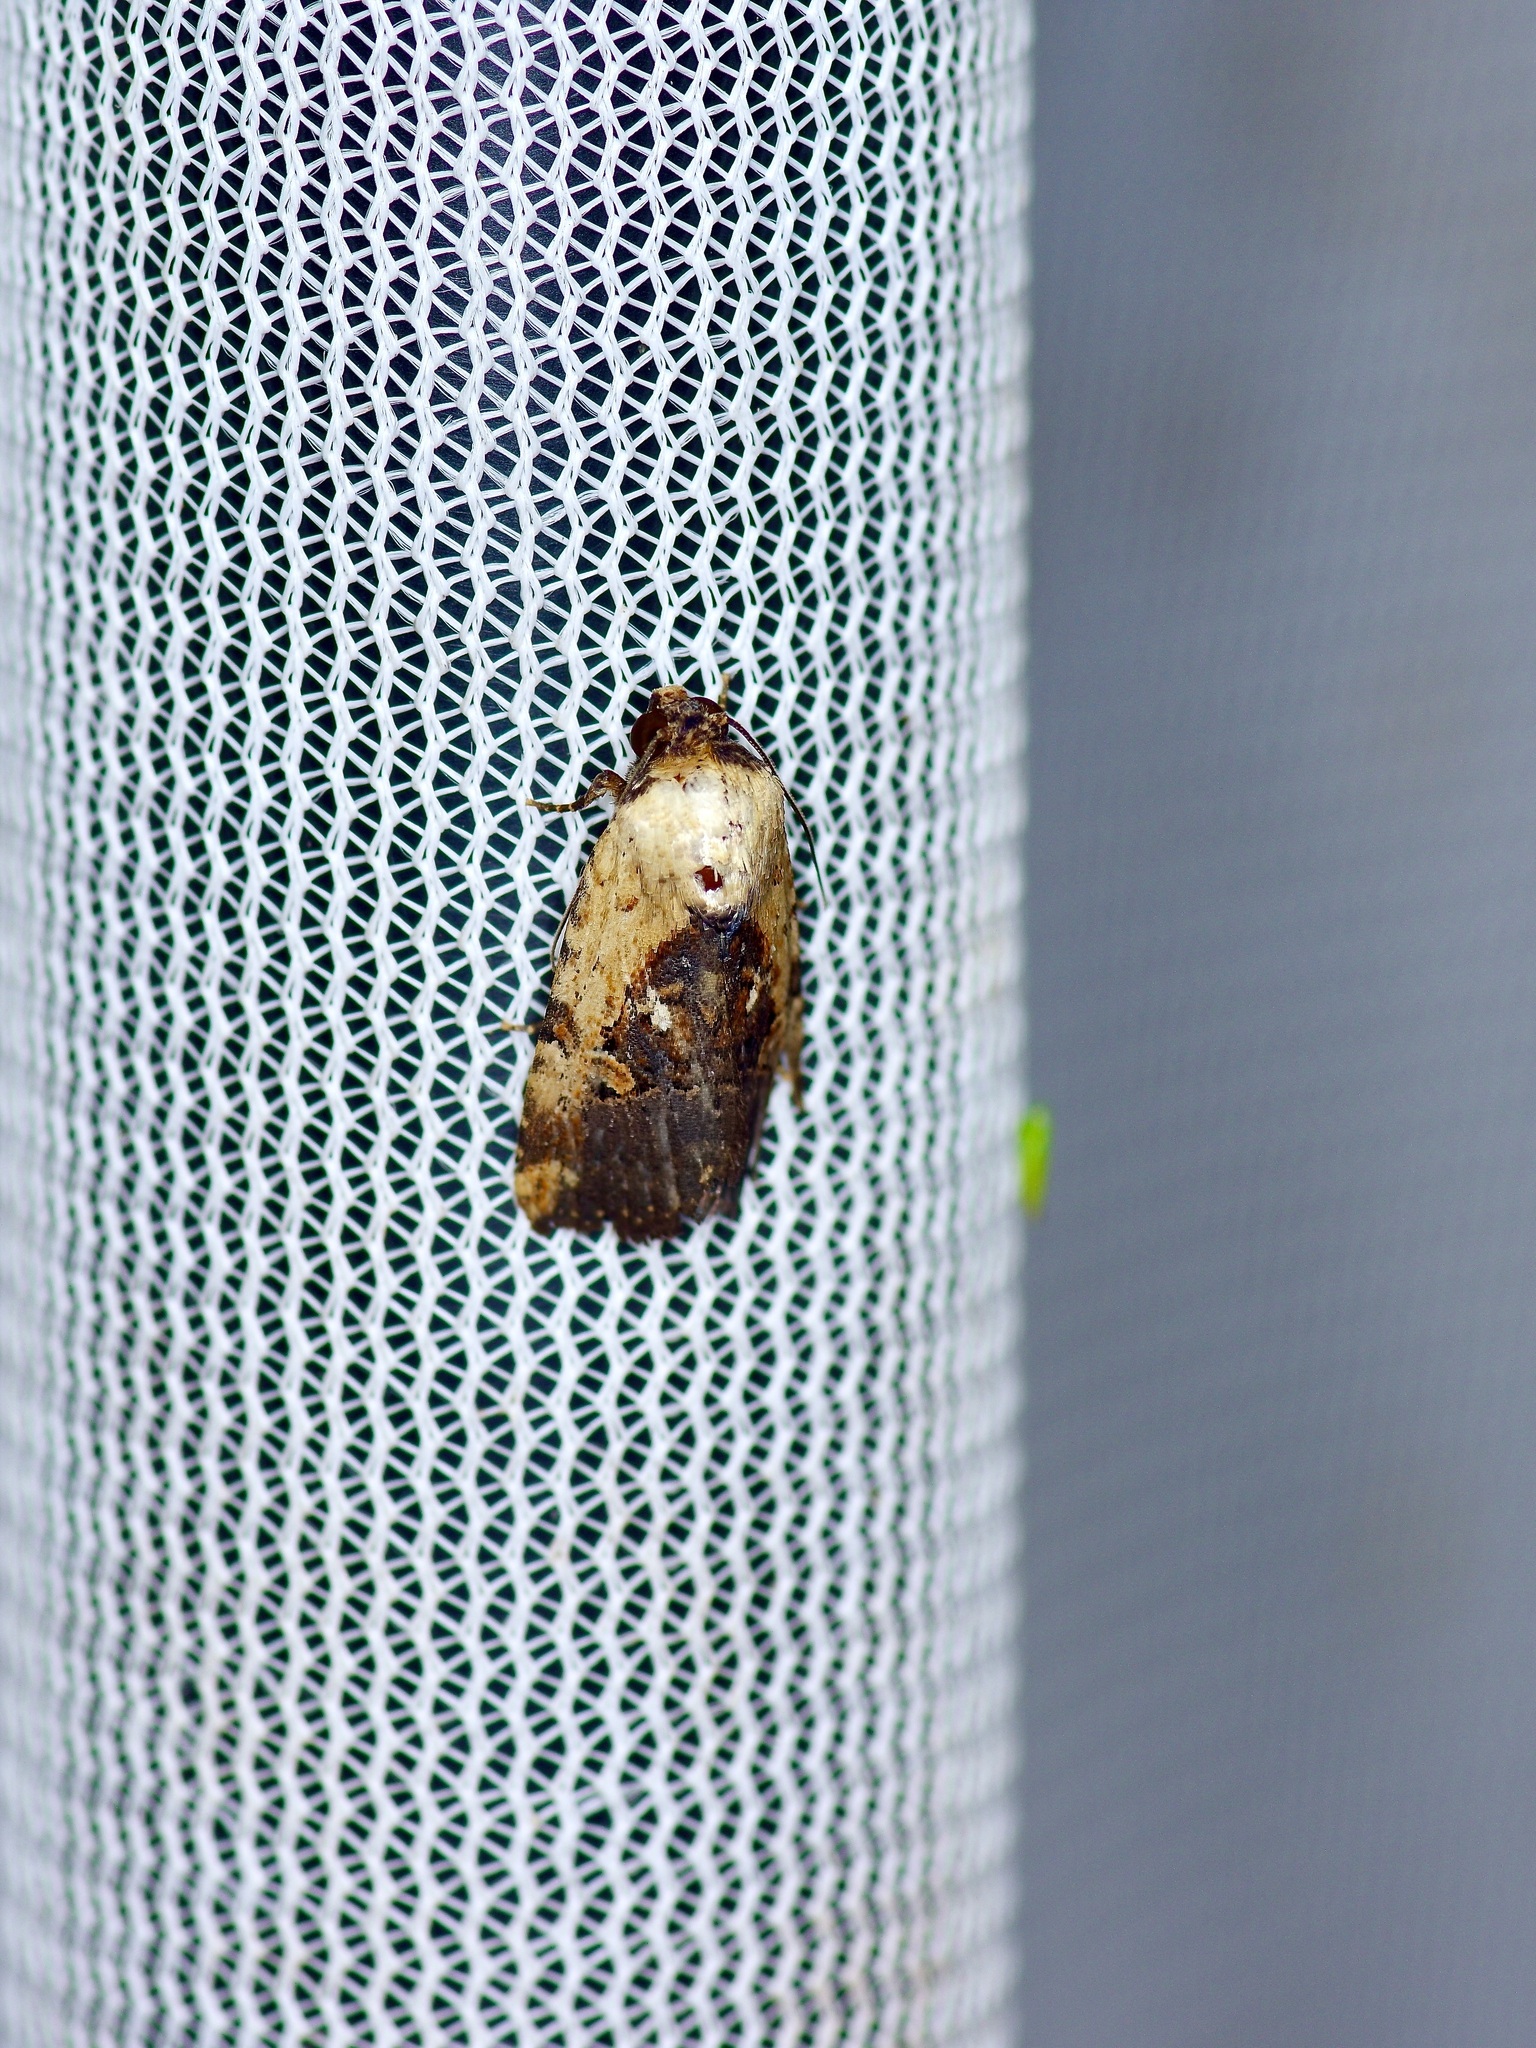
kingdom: Animalia
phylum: Arthropoda
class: Insecta
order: Lepidoptera
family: Noctuidae
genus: Elaphria
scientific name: Elaphria chalcedonia
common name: Chalcedony midget
